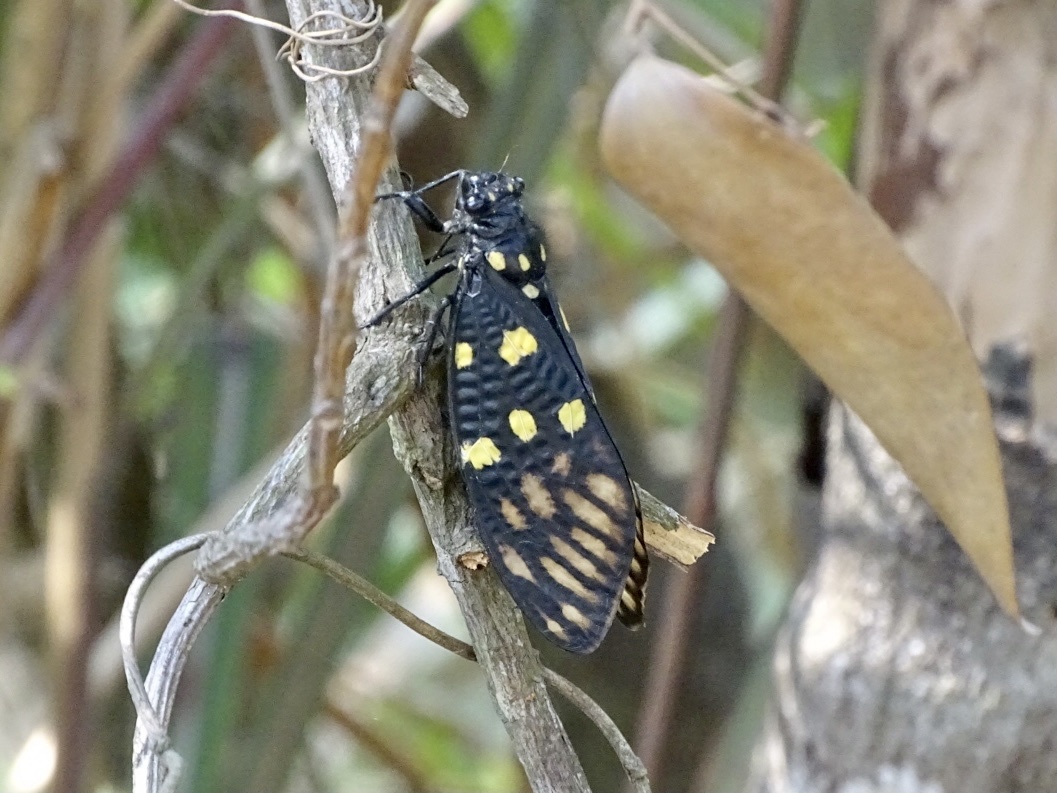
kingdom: Animalia
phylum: Arthropoda
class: Insecta
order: Hemiptera
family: Cicadidae
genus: Gaeana
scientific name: Gaeana maculata
